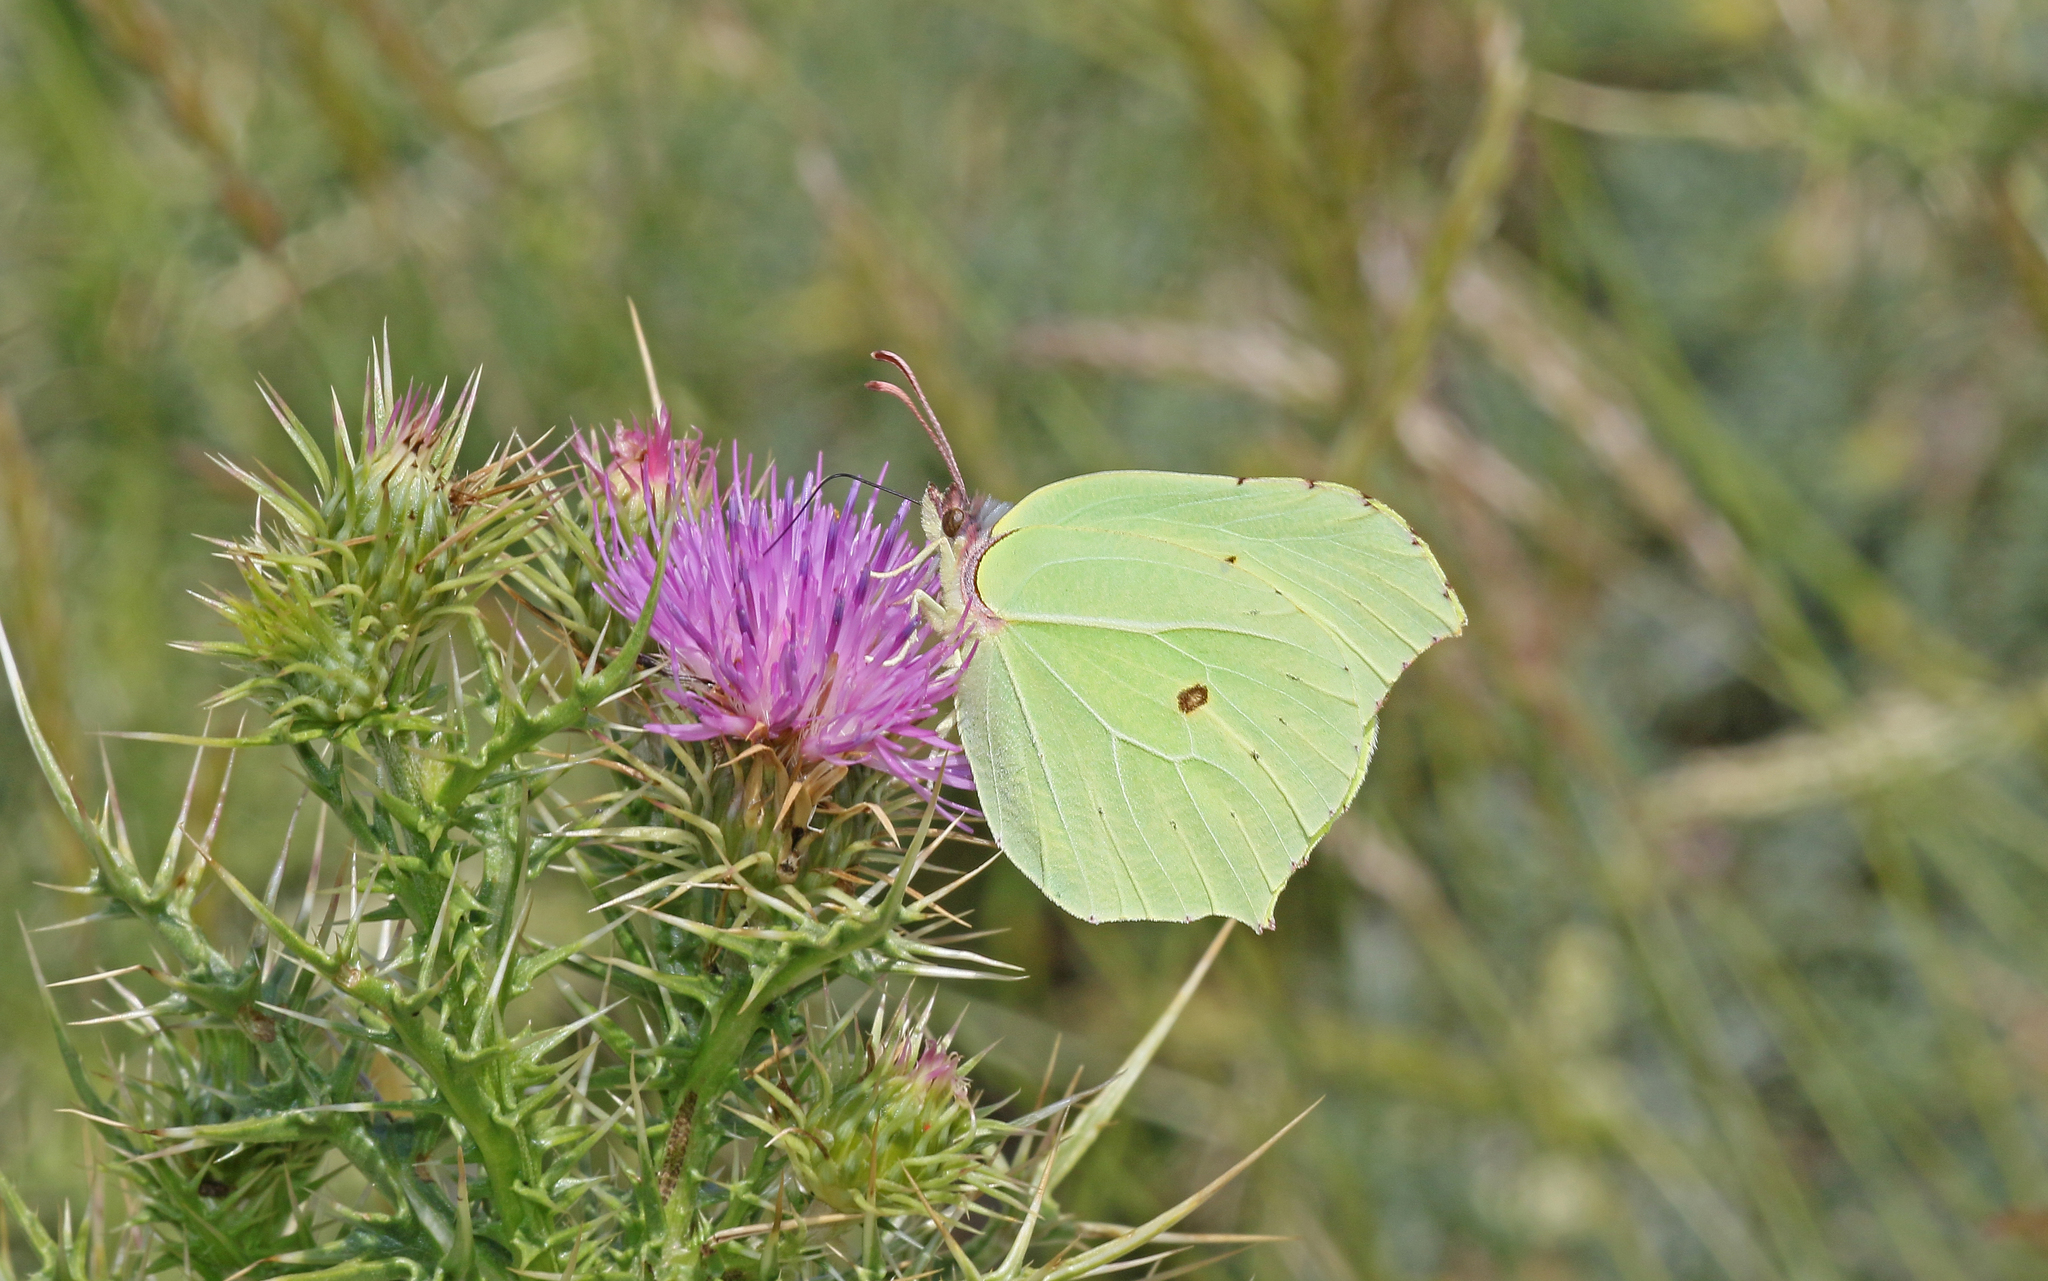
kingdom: Animalia
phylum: Arthropoda
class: Insecta
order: Lepidoptera
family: Pieridae
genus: Gonepteryx
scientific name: Gonepteryx rhamni
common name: Brimstone
